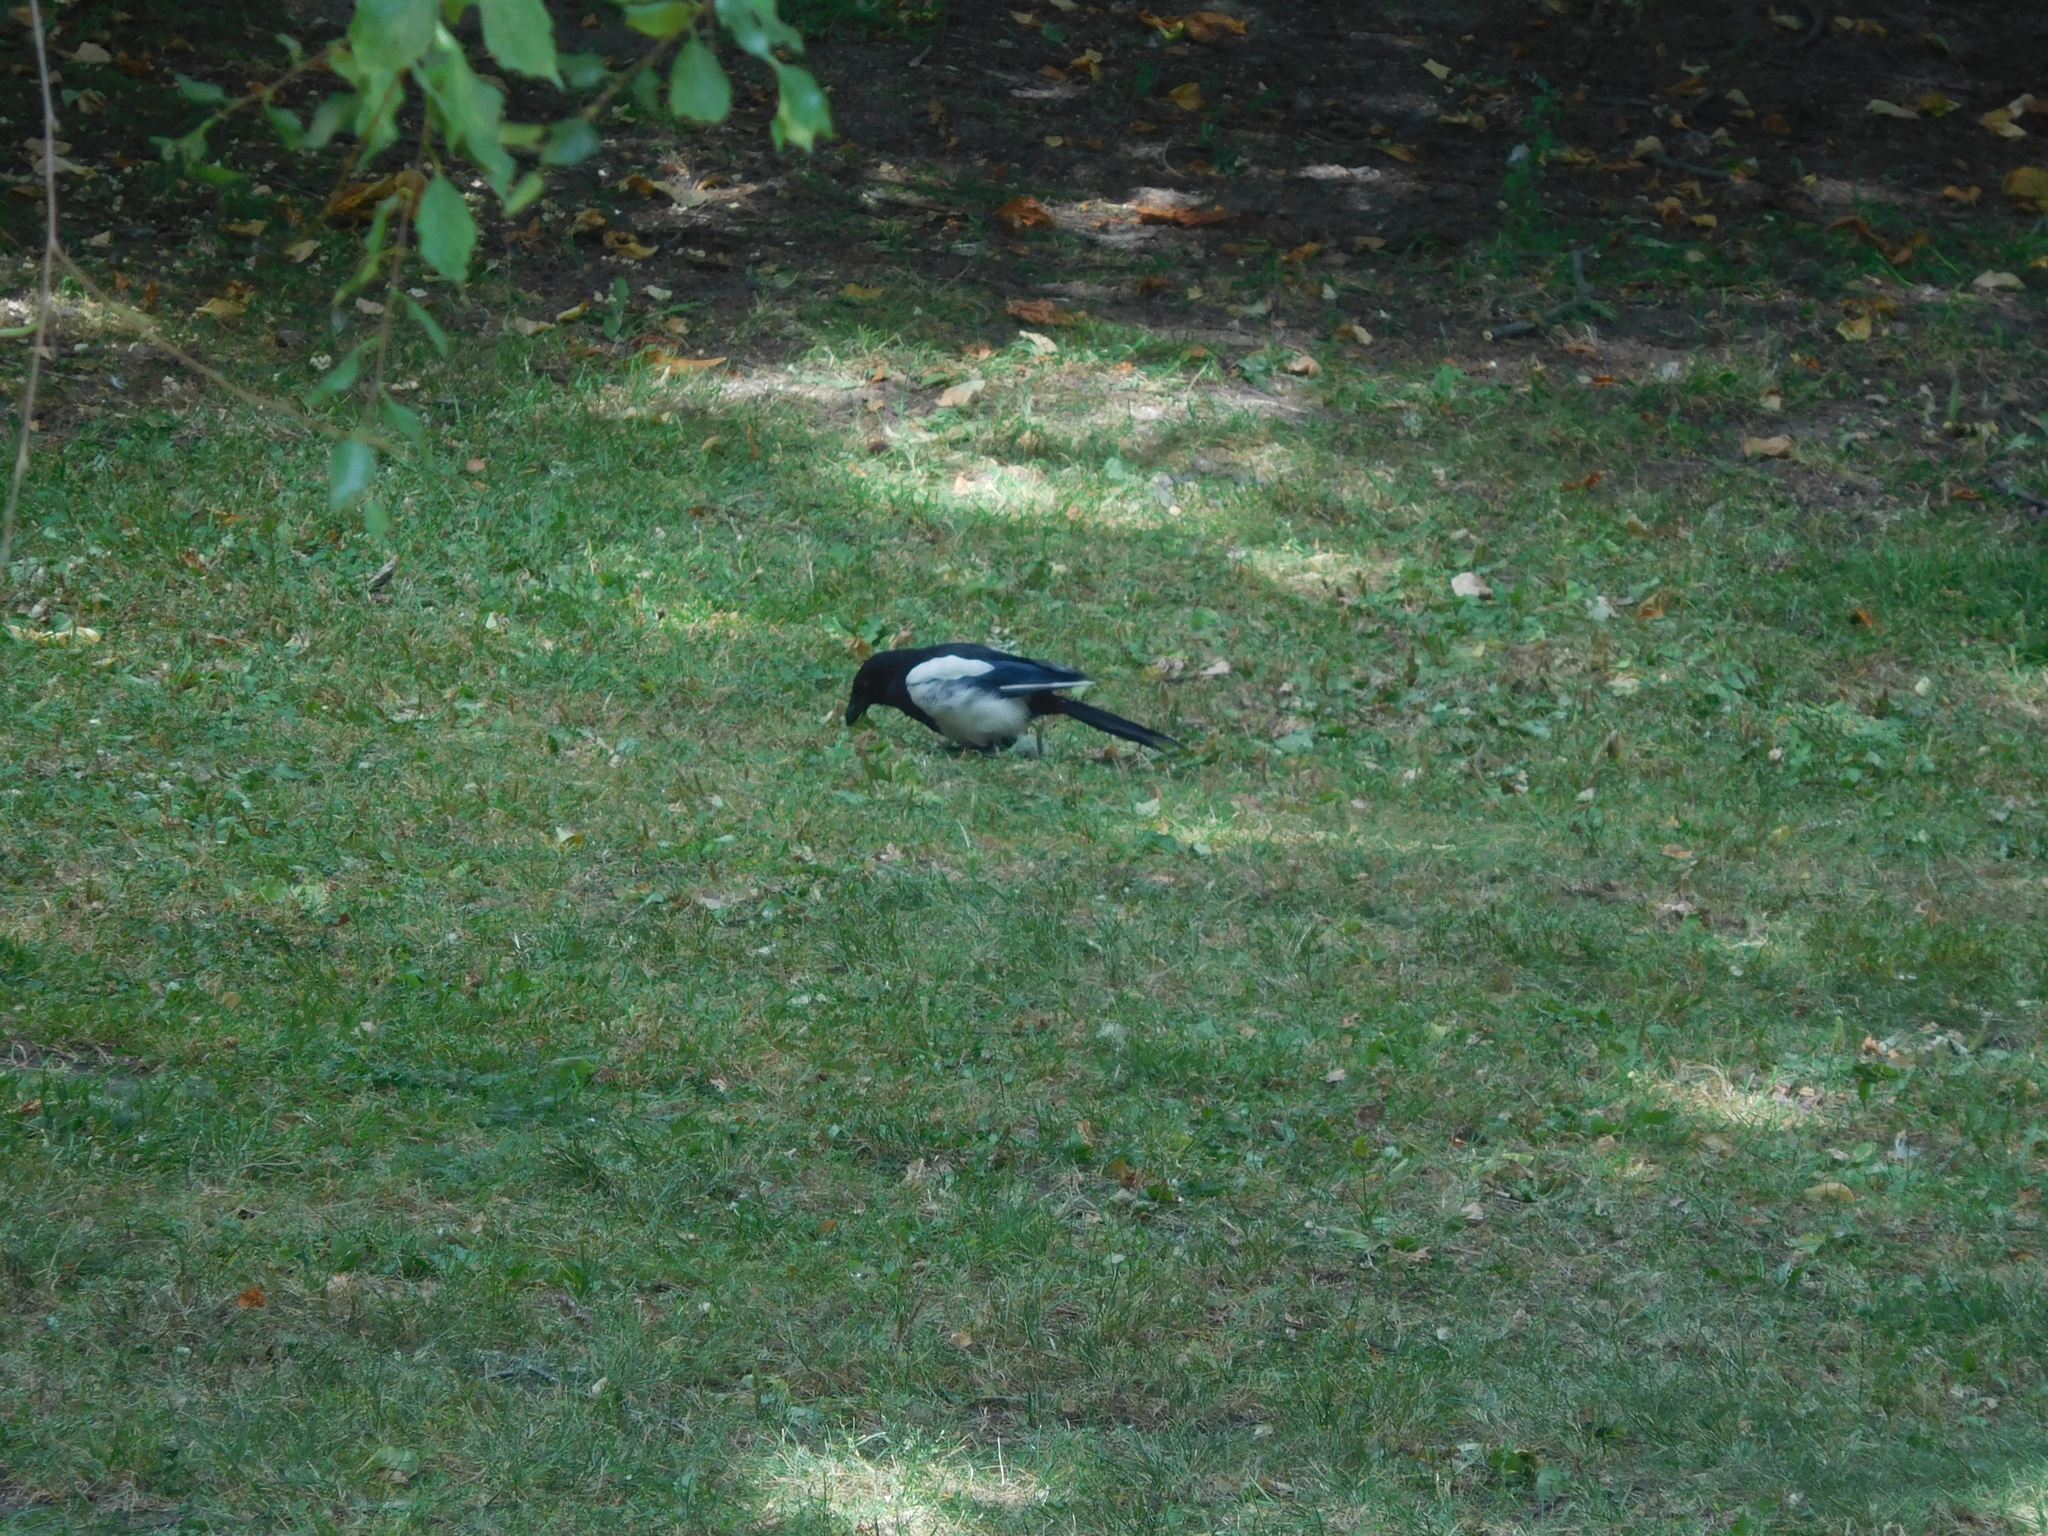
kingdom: Animalia
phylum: Chordata
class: Aves
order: Passeriformes
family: Corvidae
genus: Pica
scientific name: Pica pica
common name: Eurasian magpie
